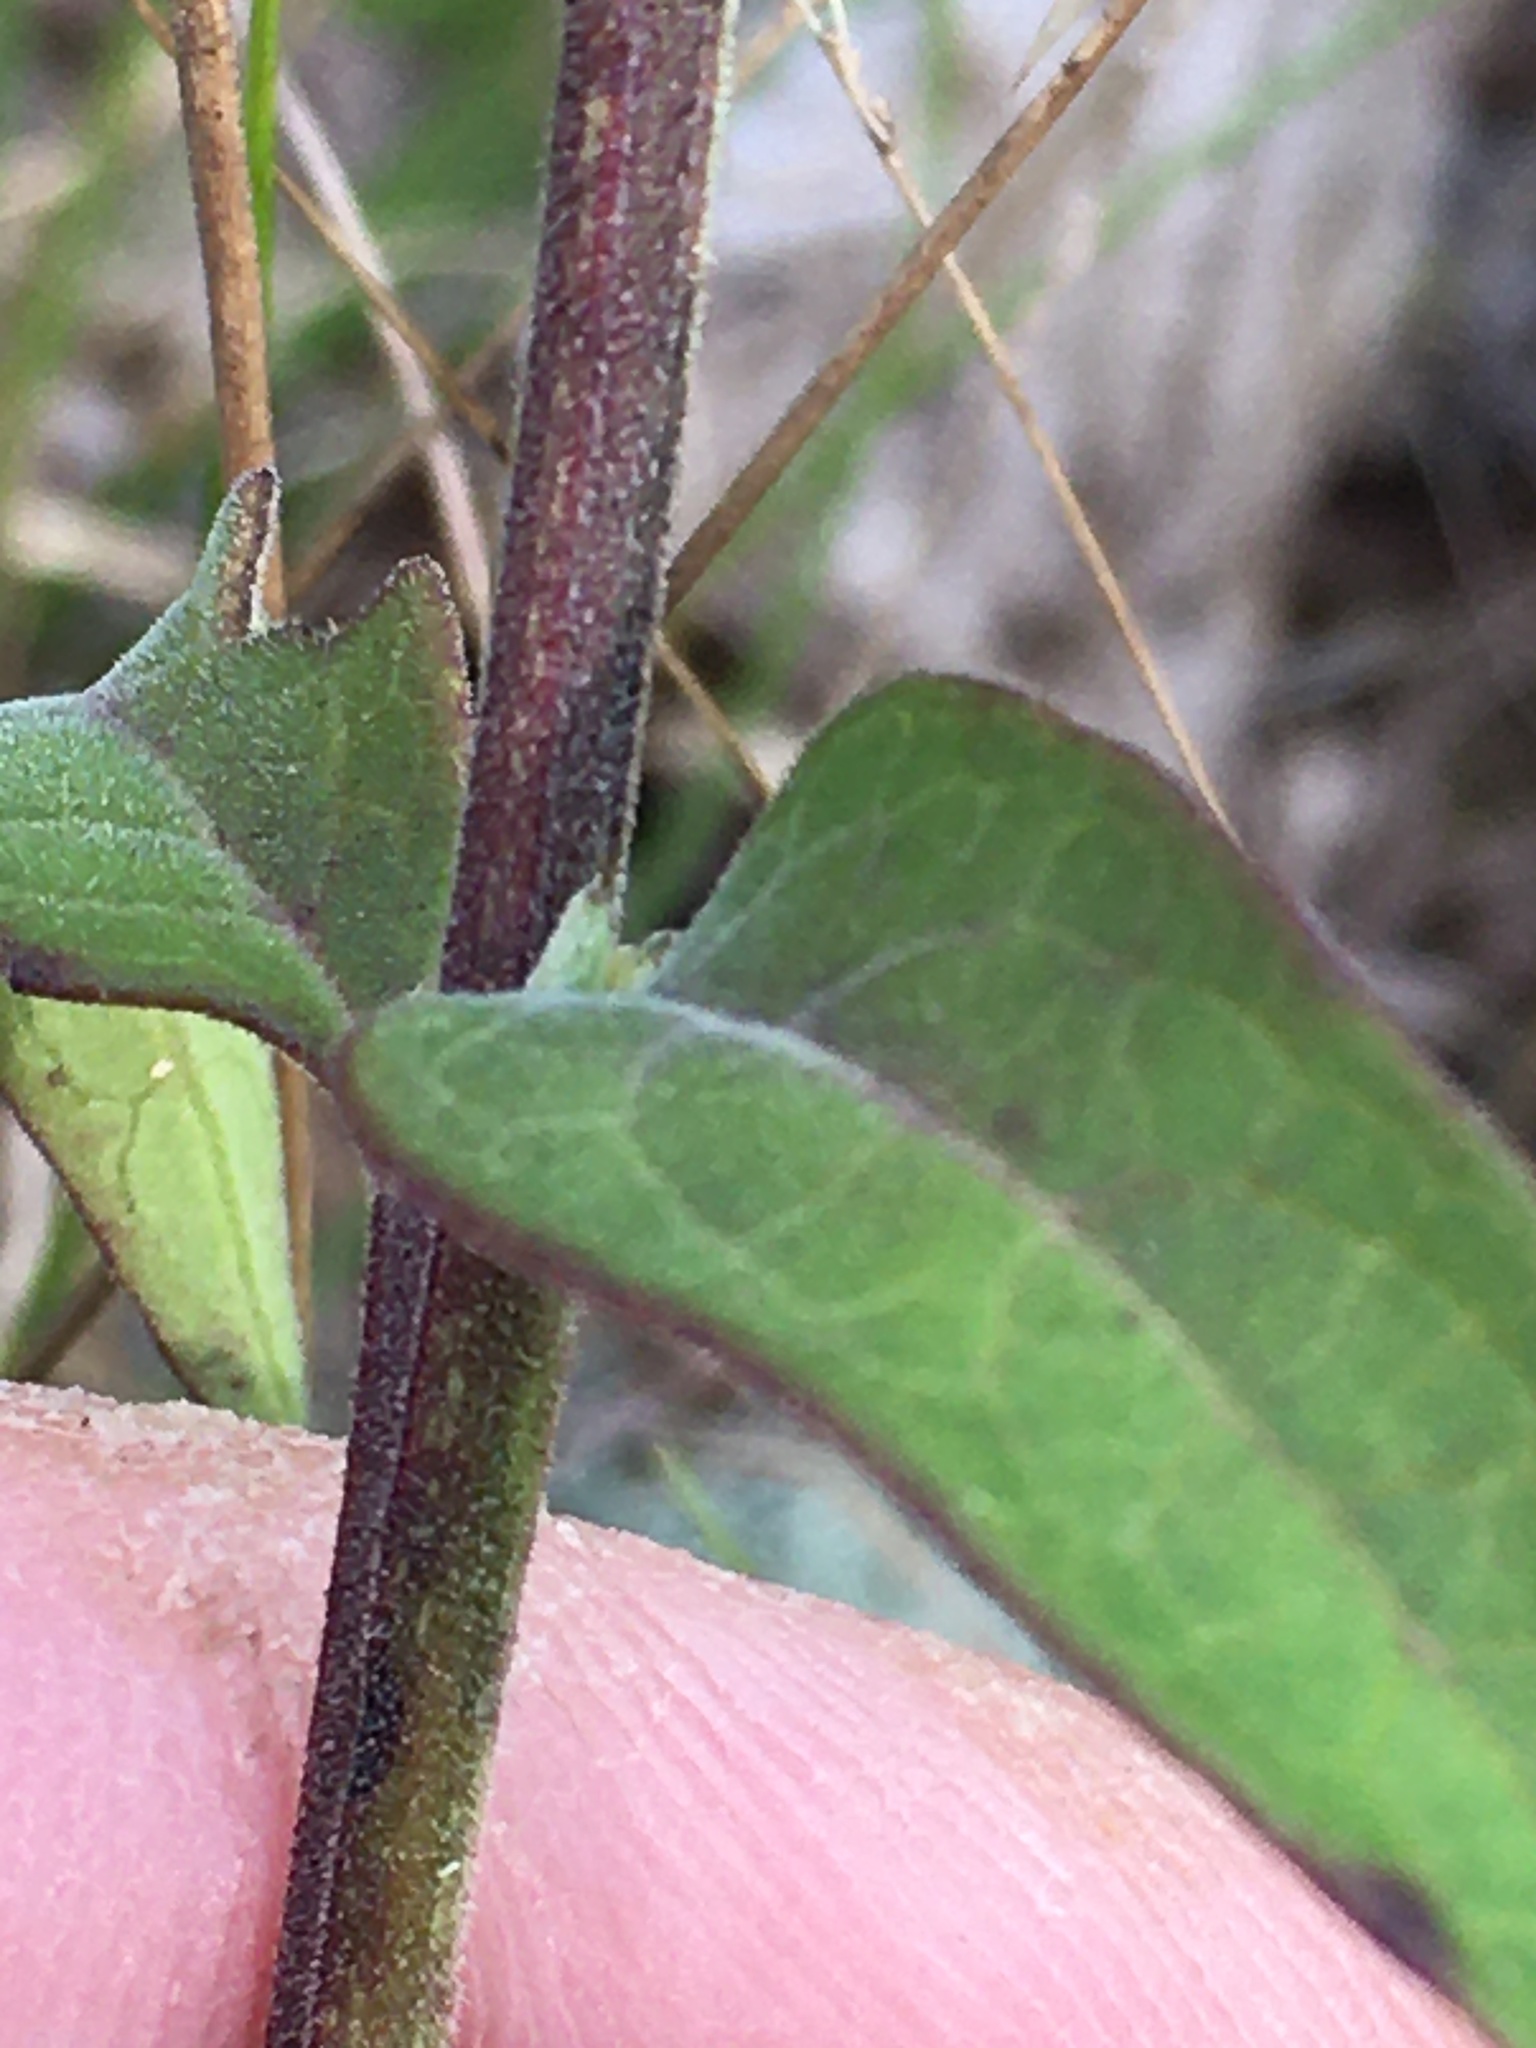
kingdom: Plantae
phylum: Tracheophyta
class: Magnoliopsida
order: Lamiales
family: Orobanchaceae
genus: Aureolaria
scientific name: Aureolaria virginica
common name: Downy false foxglove
